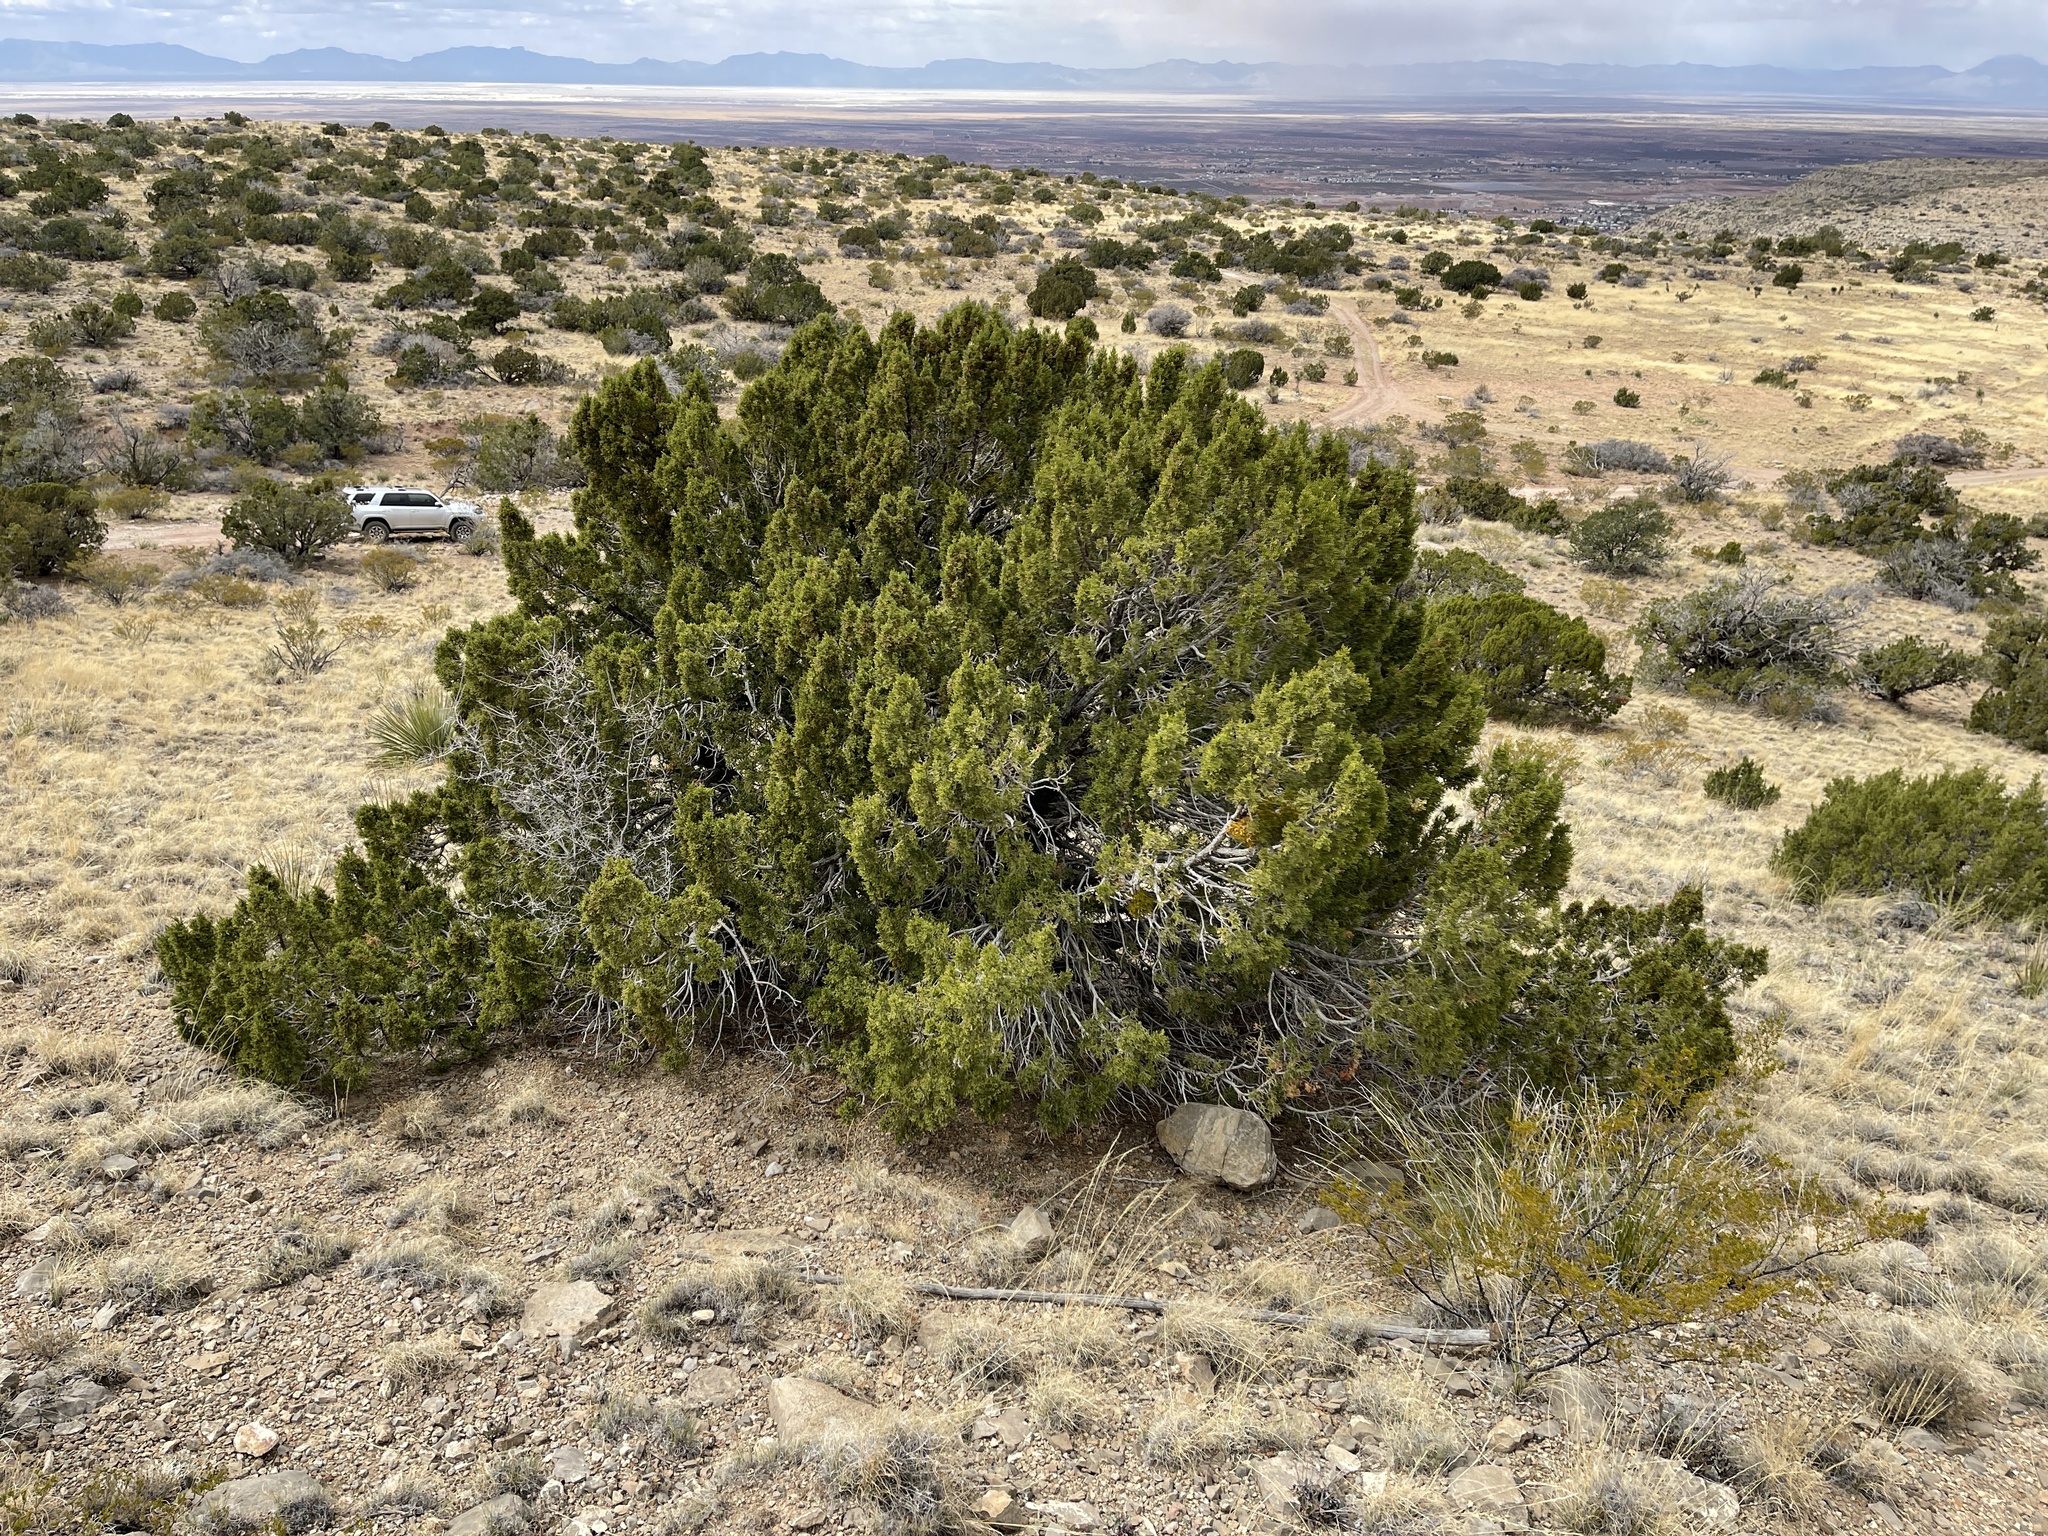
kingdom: Plantae
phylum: Tracheophyta
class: Pinopsida
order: Pinales
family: Cupressaceae
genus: Juniperus
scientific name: Juniperus monosperma
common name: One-seed juniper
